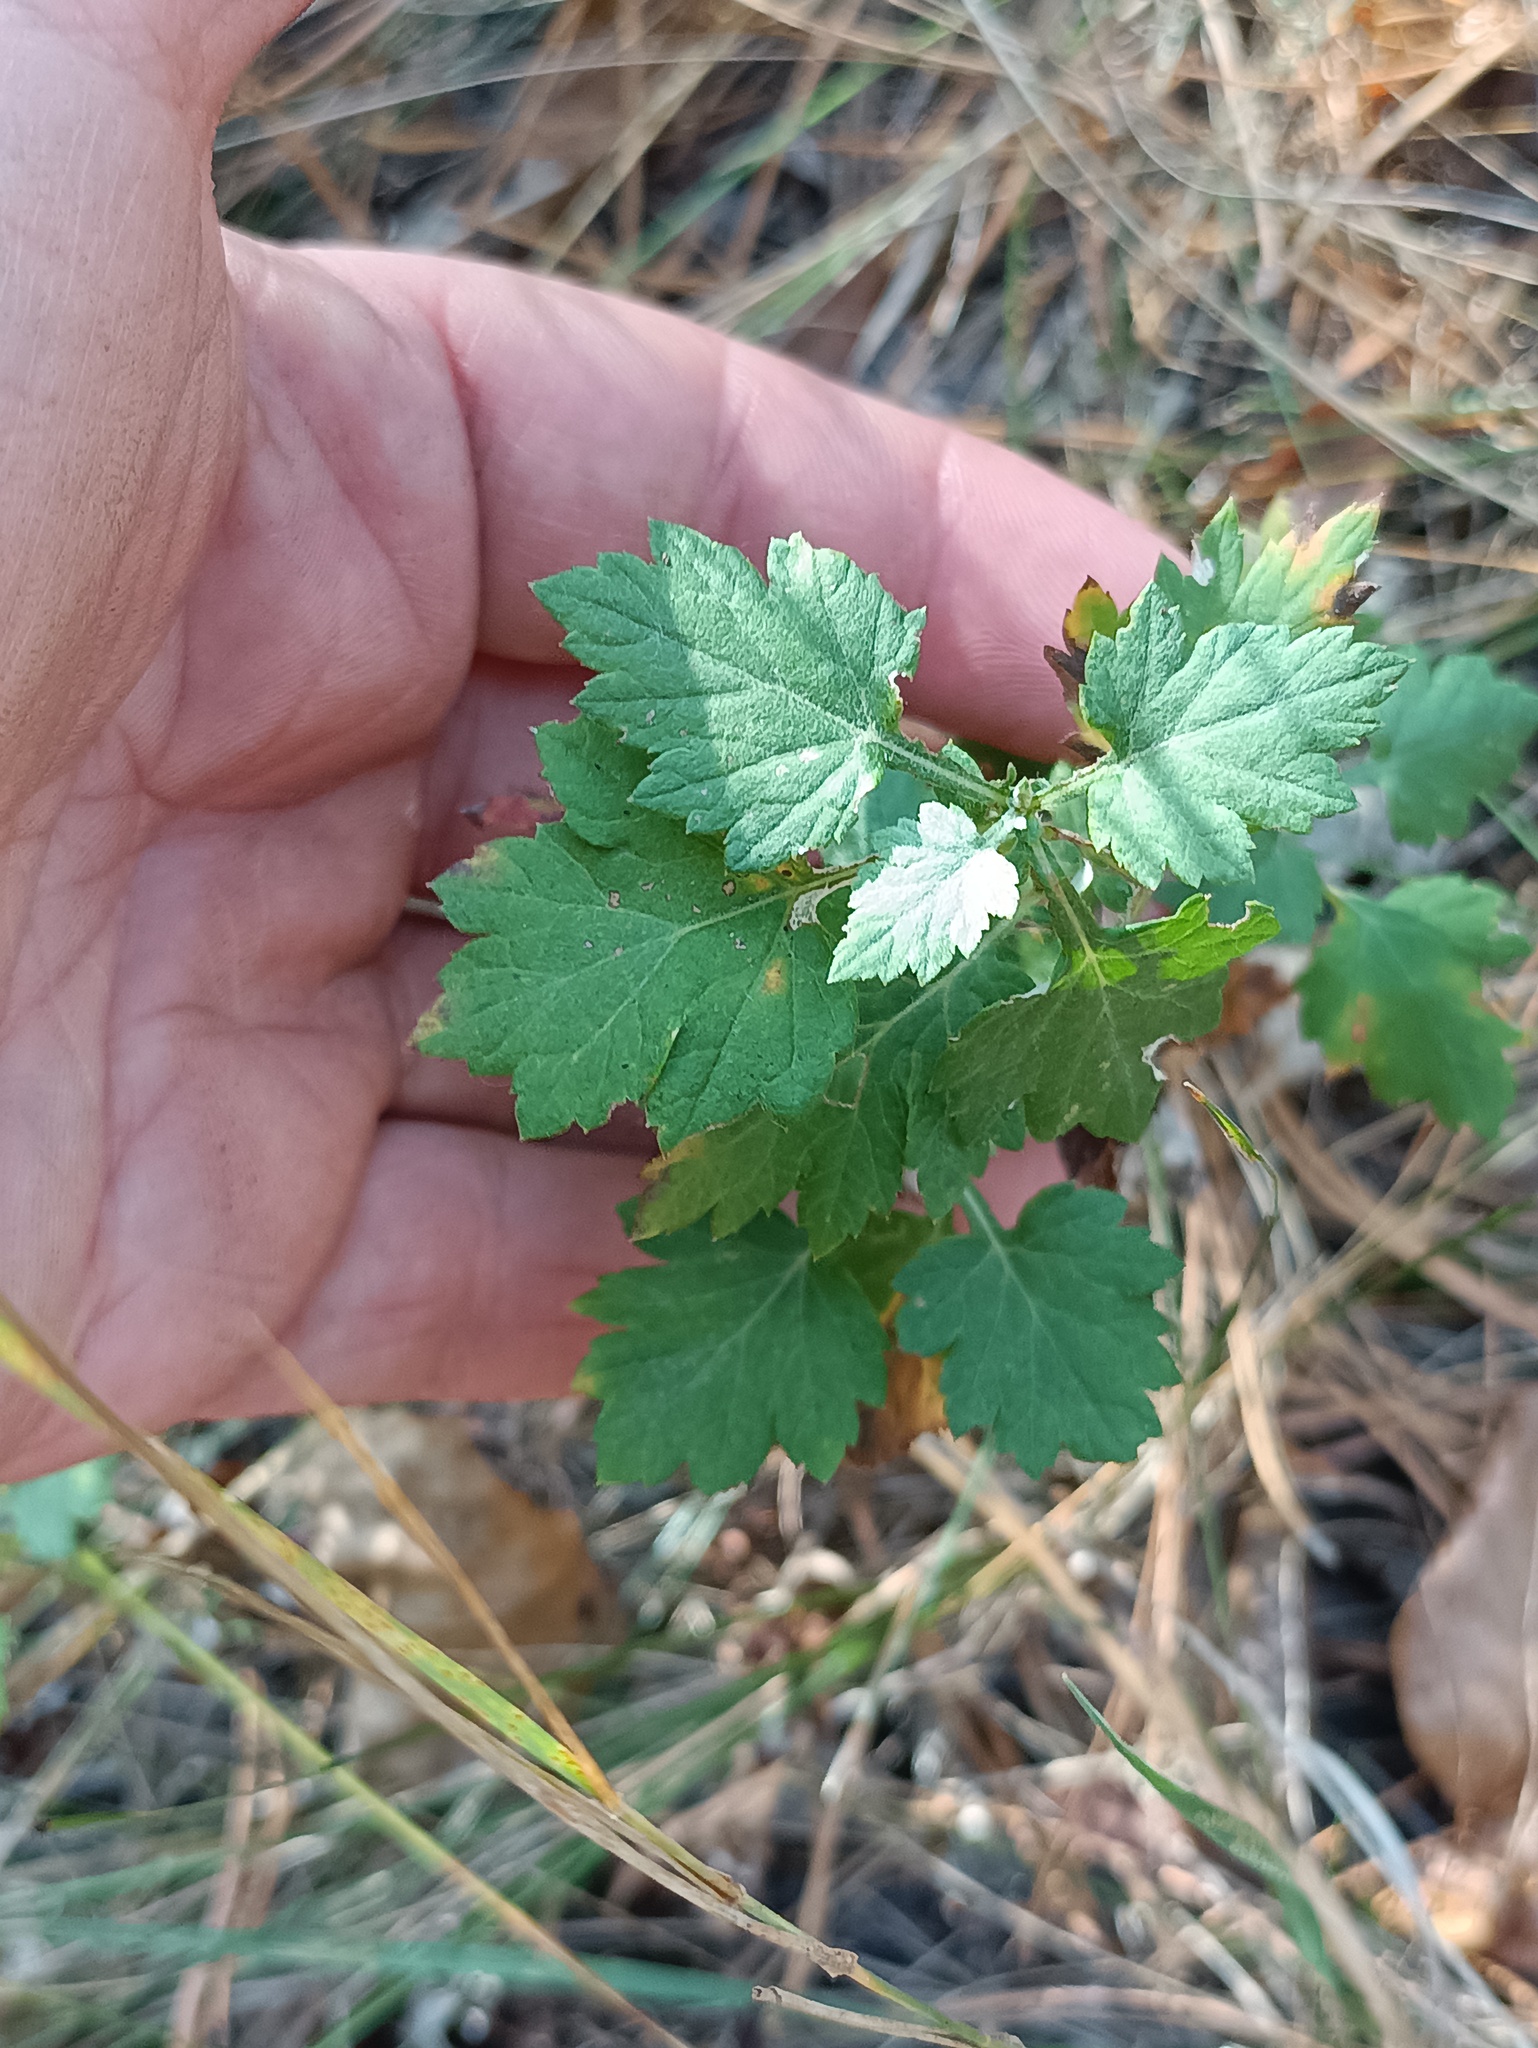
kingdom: Plantae
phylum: Tracheophyta
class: Magnoliopsida
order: Asterales
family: Asteraceae
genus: Artemisia
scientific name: Artemisia vulgaris
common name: Mugwort
